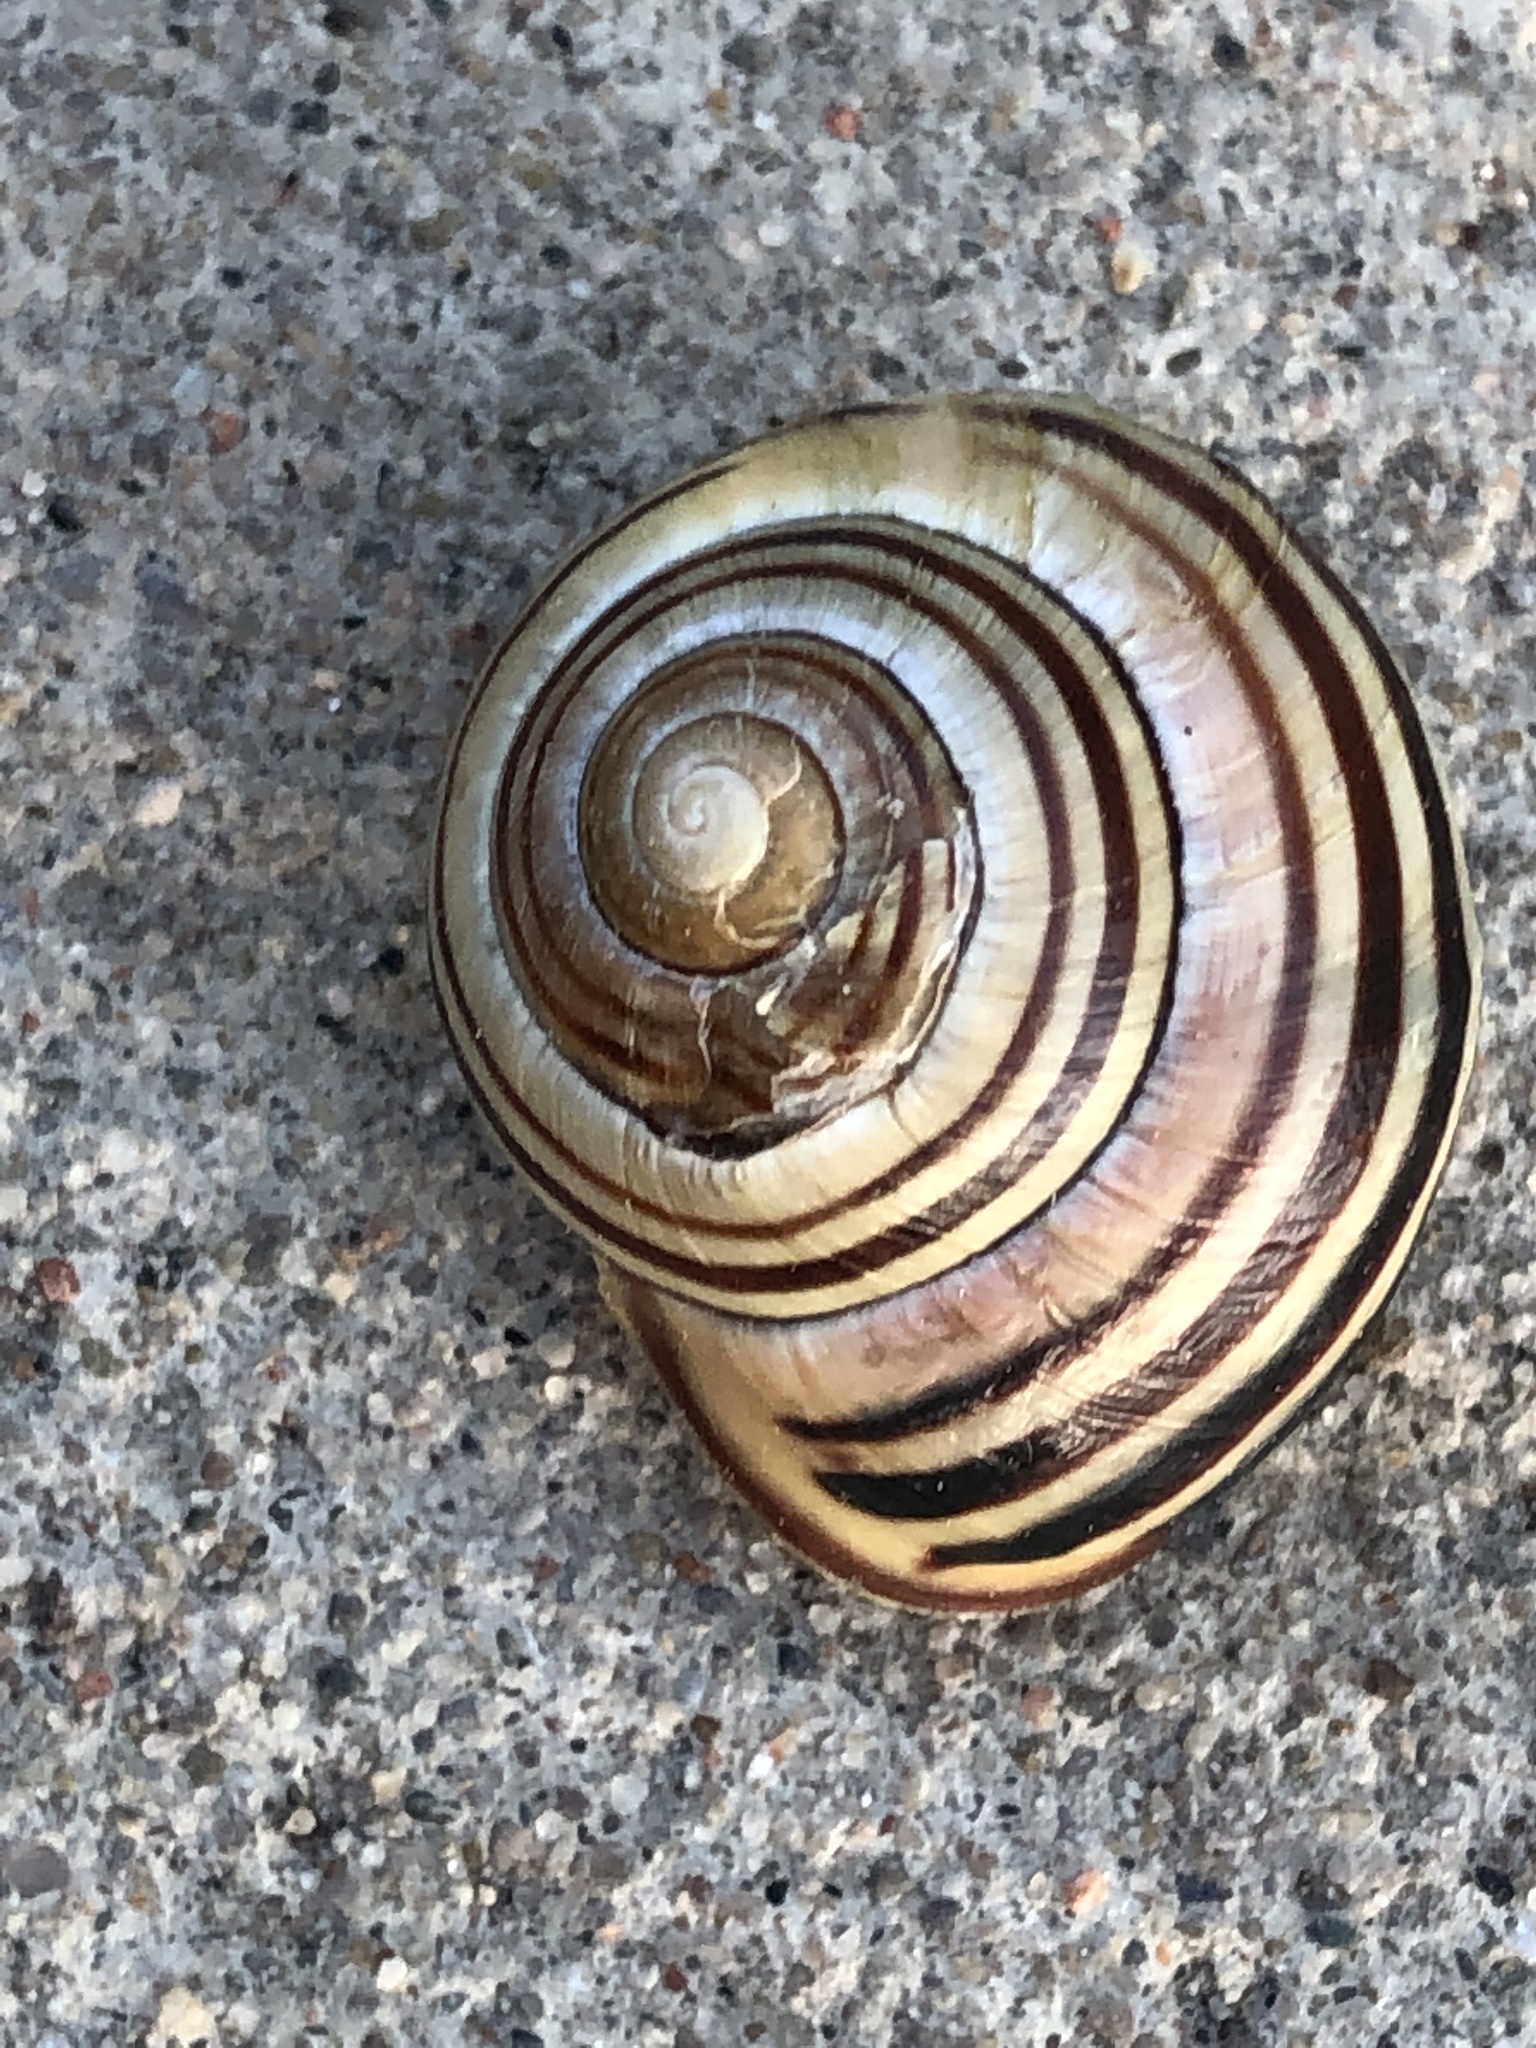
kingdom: Animalia
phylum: Mollusca
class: Gastropoda
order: Stylommatophora
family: Helicidae
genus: Cepaea
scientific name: Cepaea nemoralis
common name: Grovesnail
